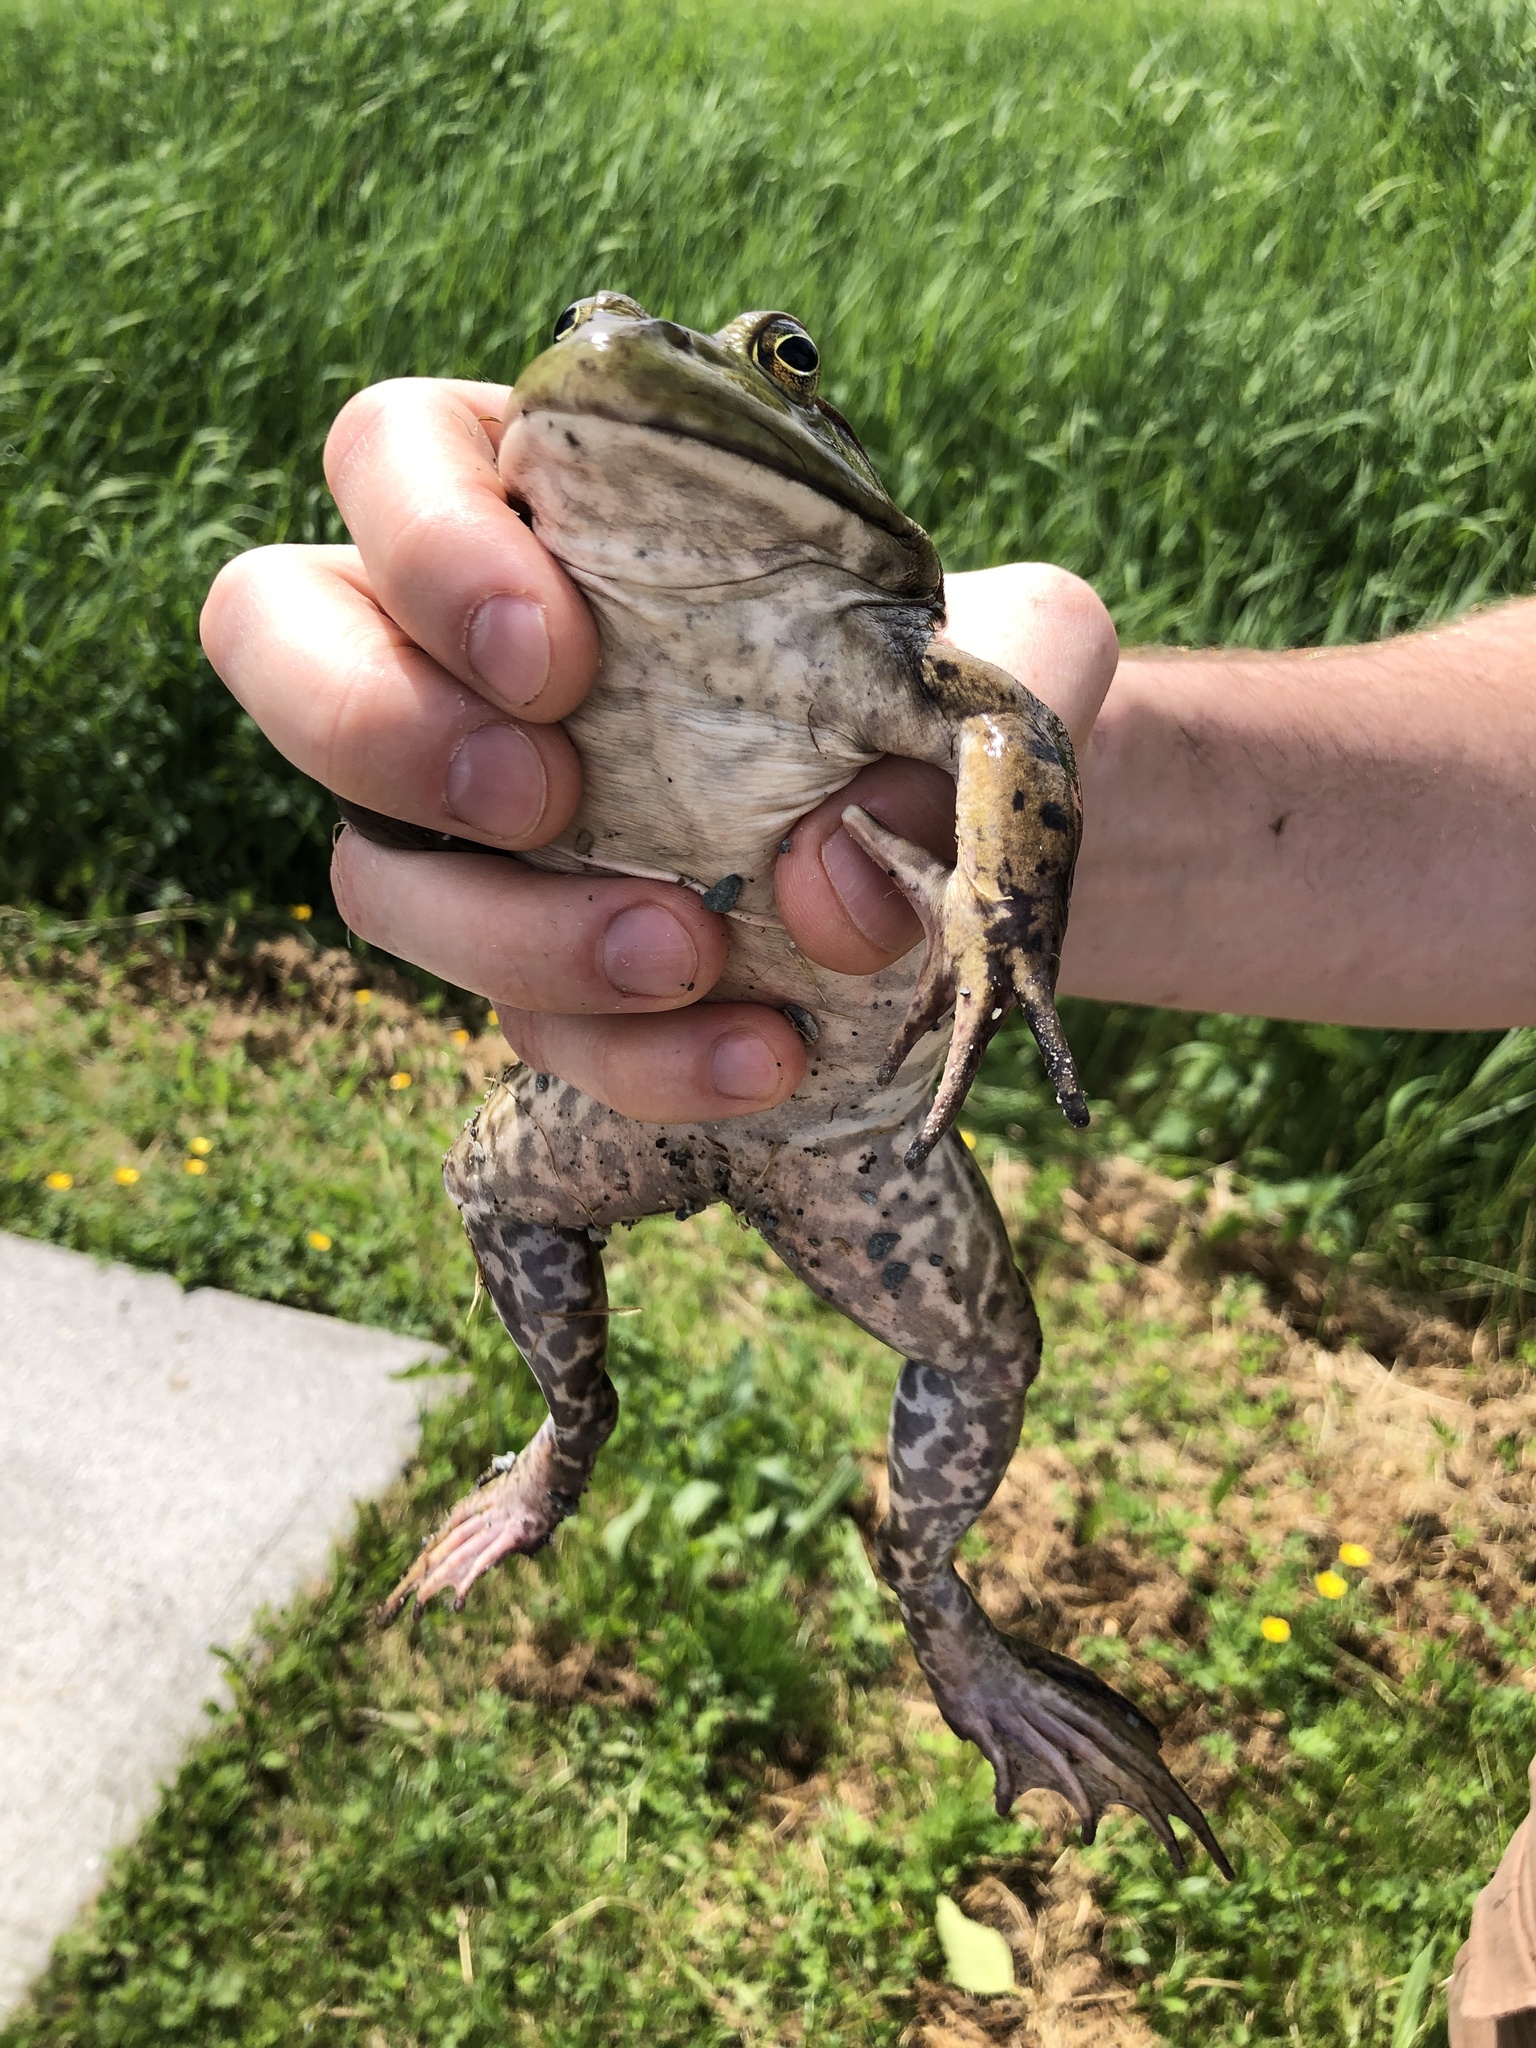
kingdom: Animalia
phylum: Chordata
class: Amphibia
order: Anura
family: Ranidae
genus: Lithobates
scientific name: Lithobates catesbeianus
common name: American bullfrog
